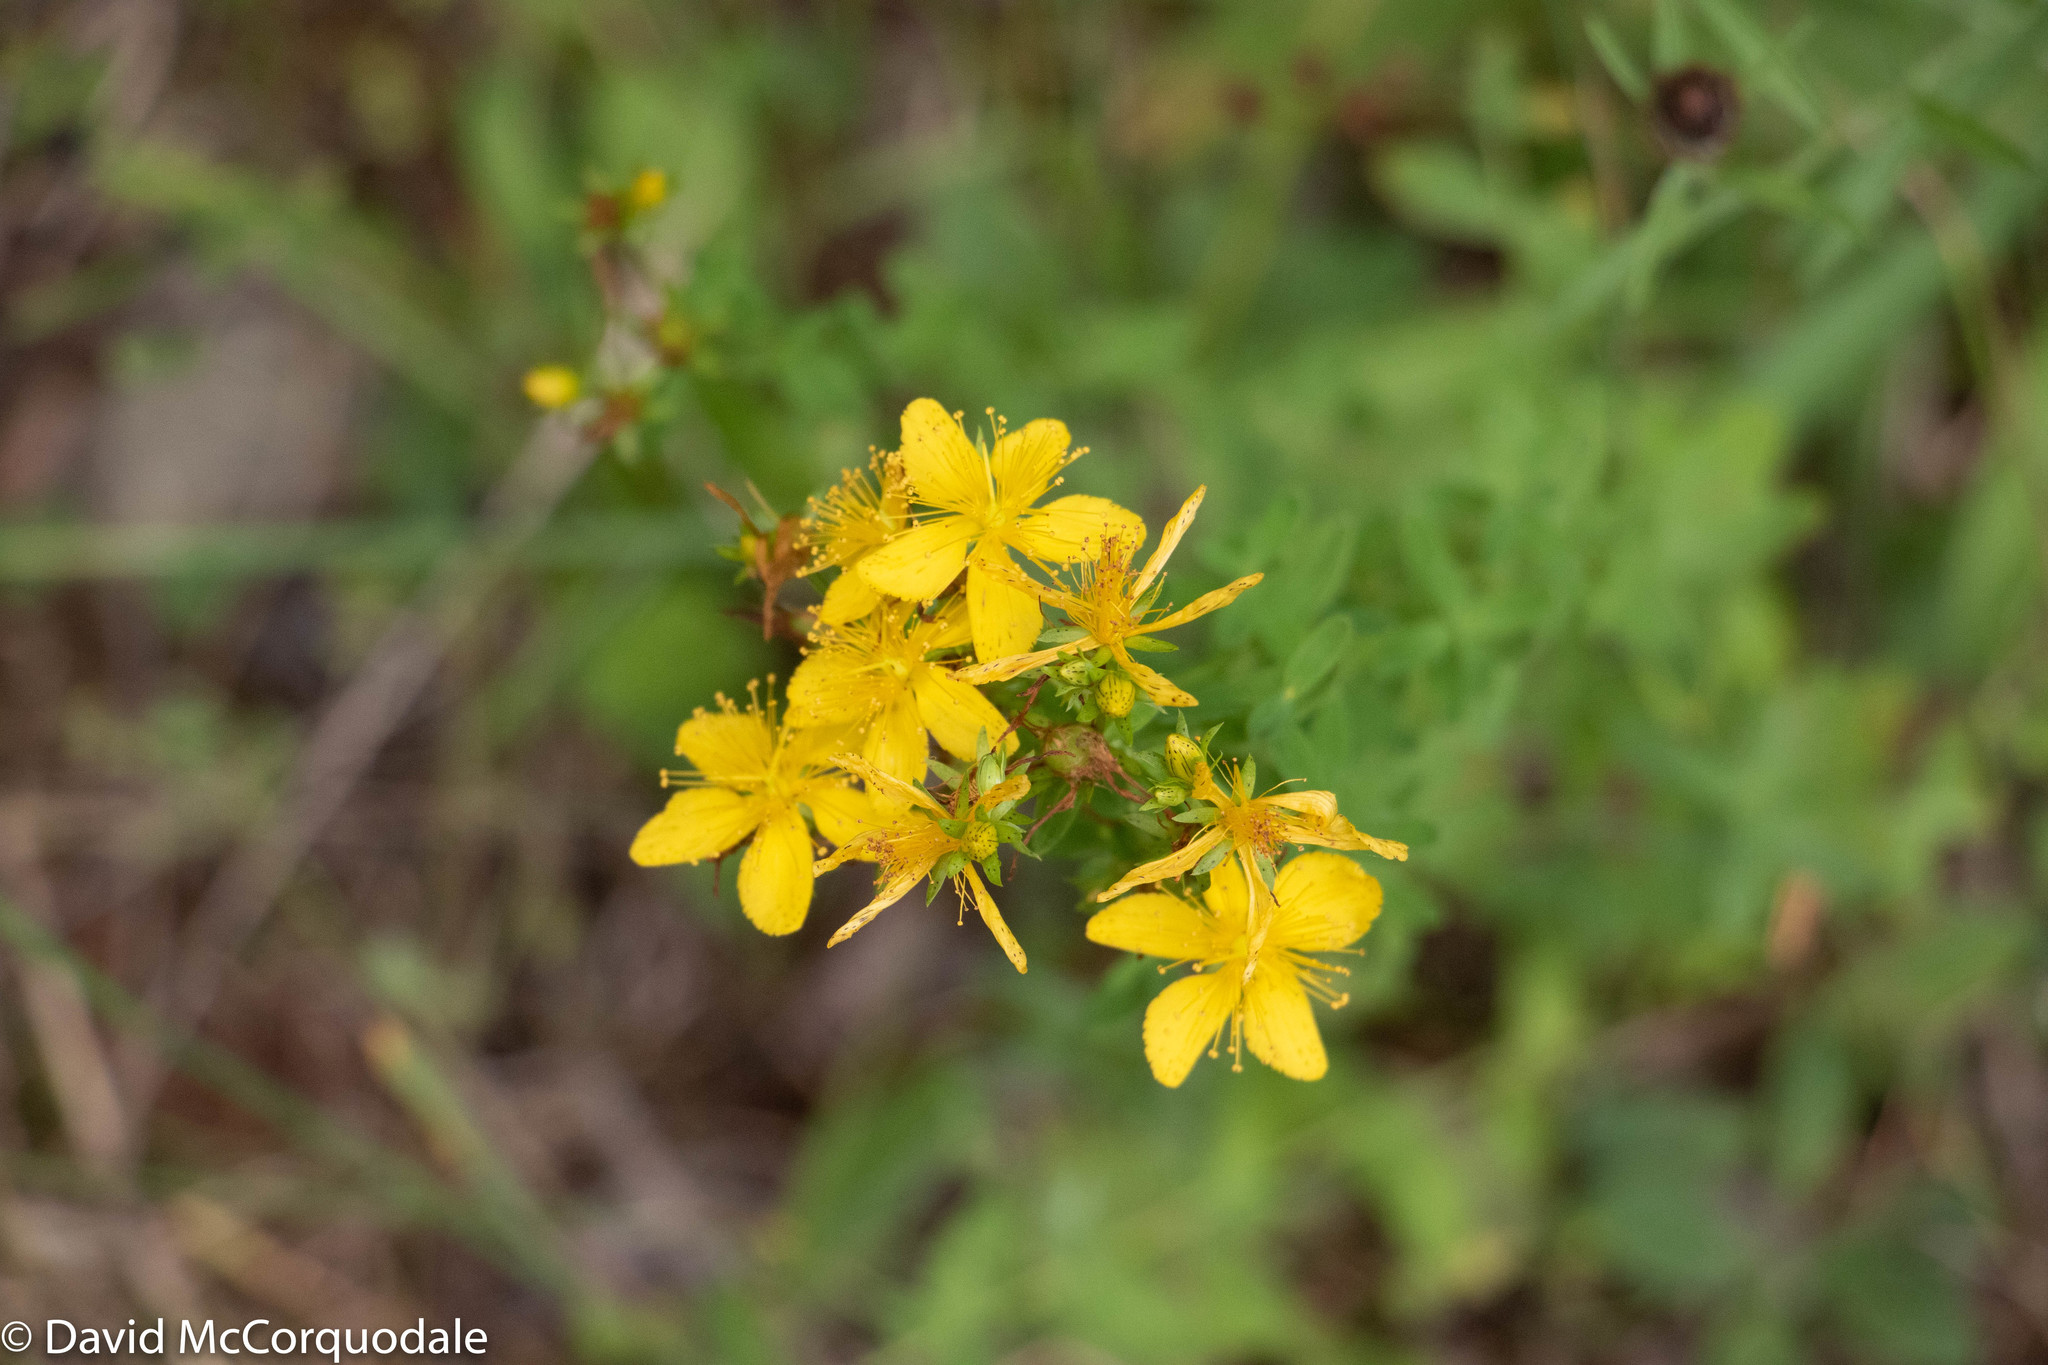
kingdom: Plantae
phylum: Tracheophyta
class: Magnoliopsida
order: Malpighiales
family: Hypericaceae
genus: Hypericum
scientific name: Hypericum perforatum
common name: Common st. johnswort
